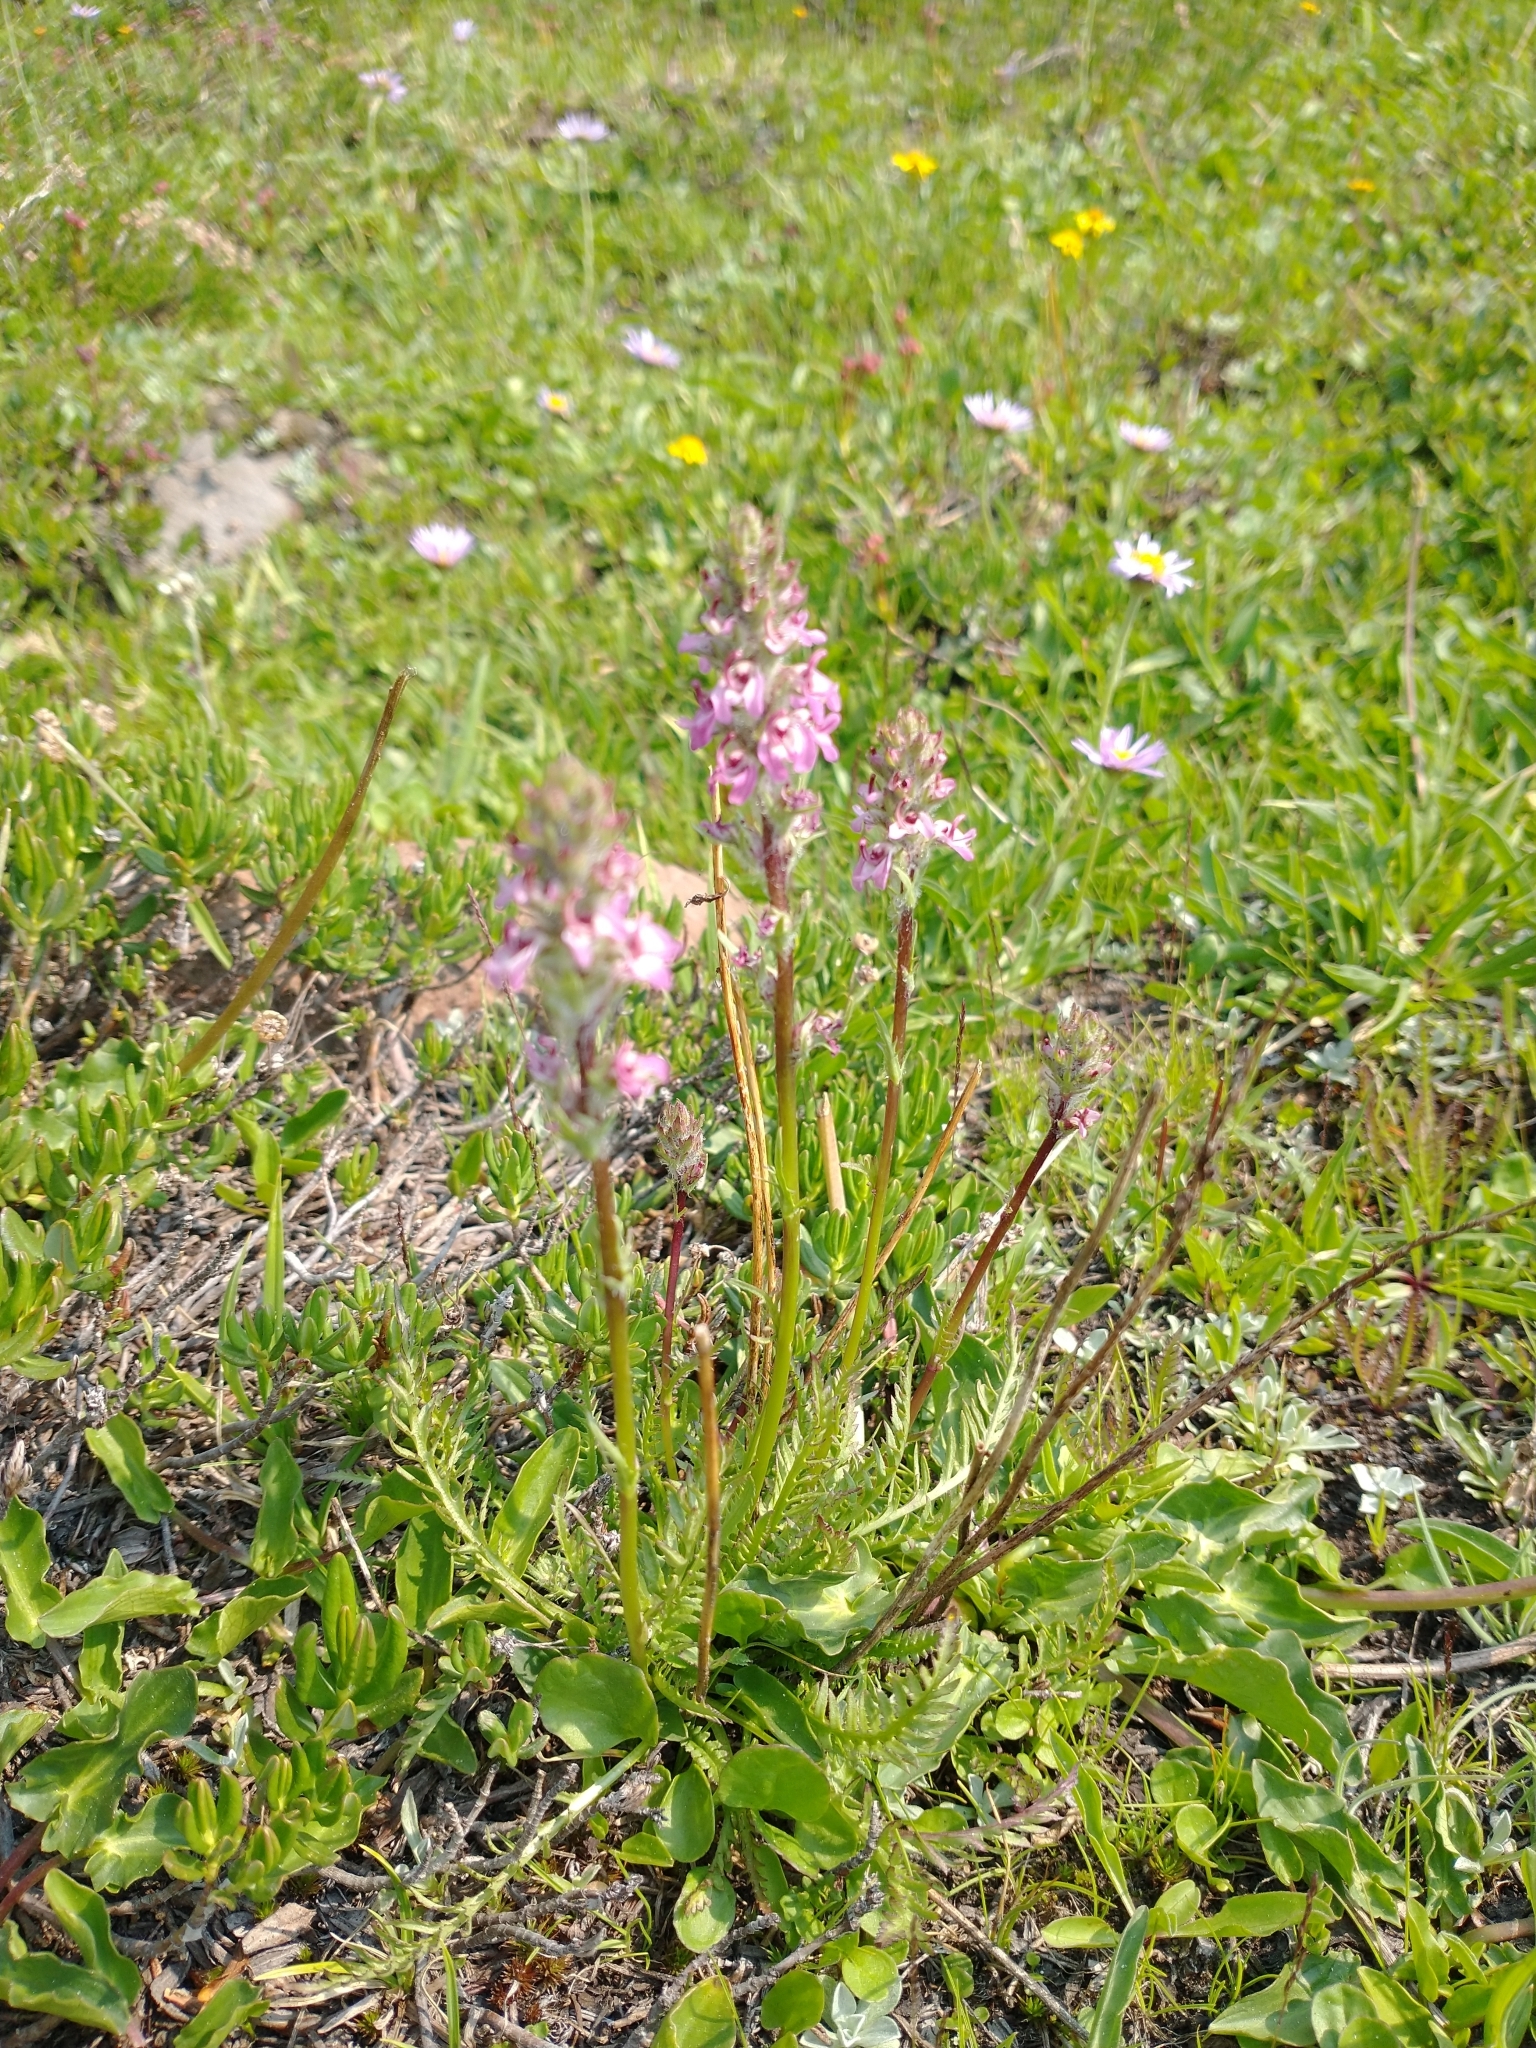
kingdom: Plantae
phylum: Tracheophyta
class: Magnoliopsida
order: Lamiales
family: Orobanchaceae
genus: Pedicularis
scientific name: Pedicularis attollens
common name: Slender pedicularis
